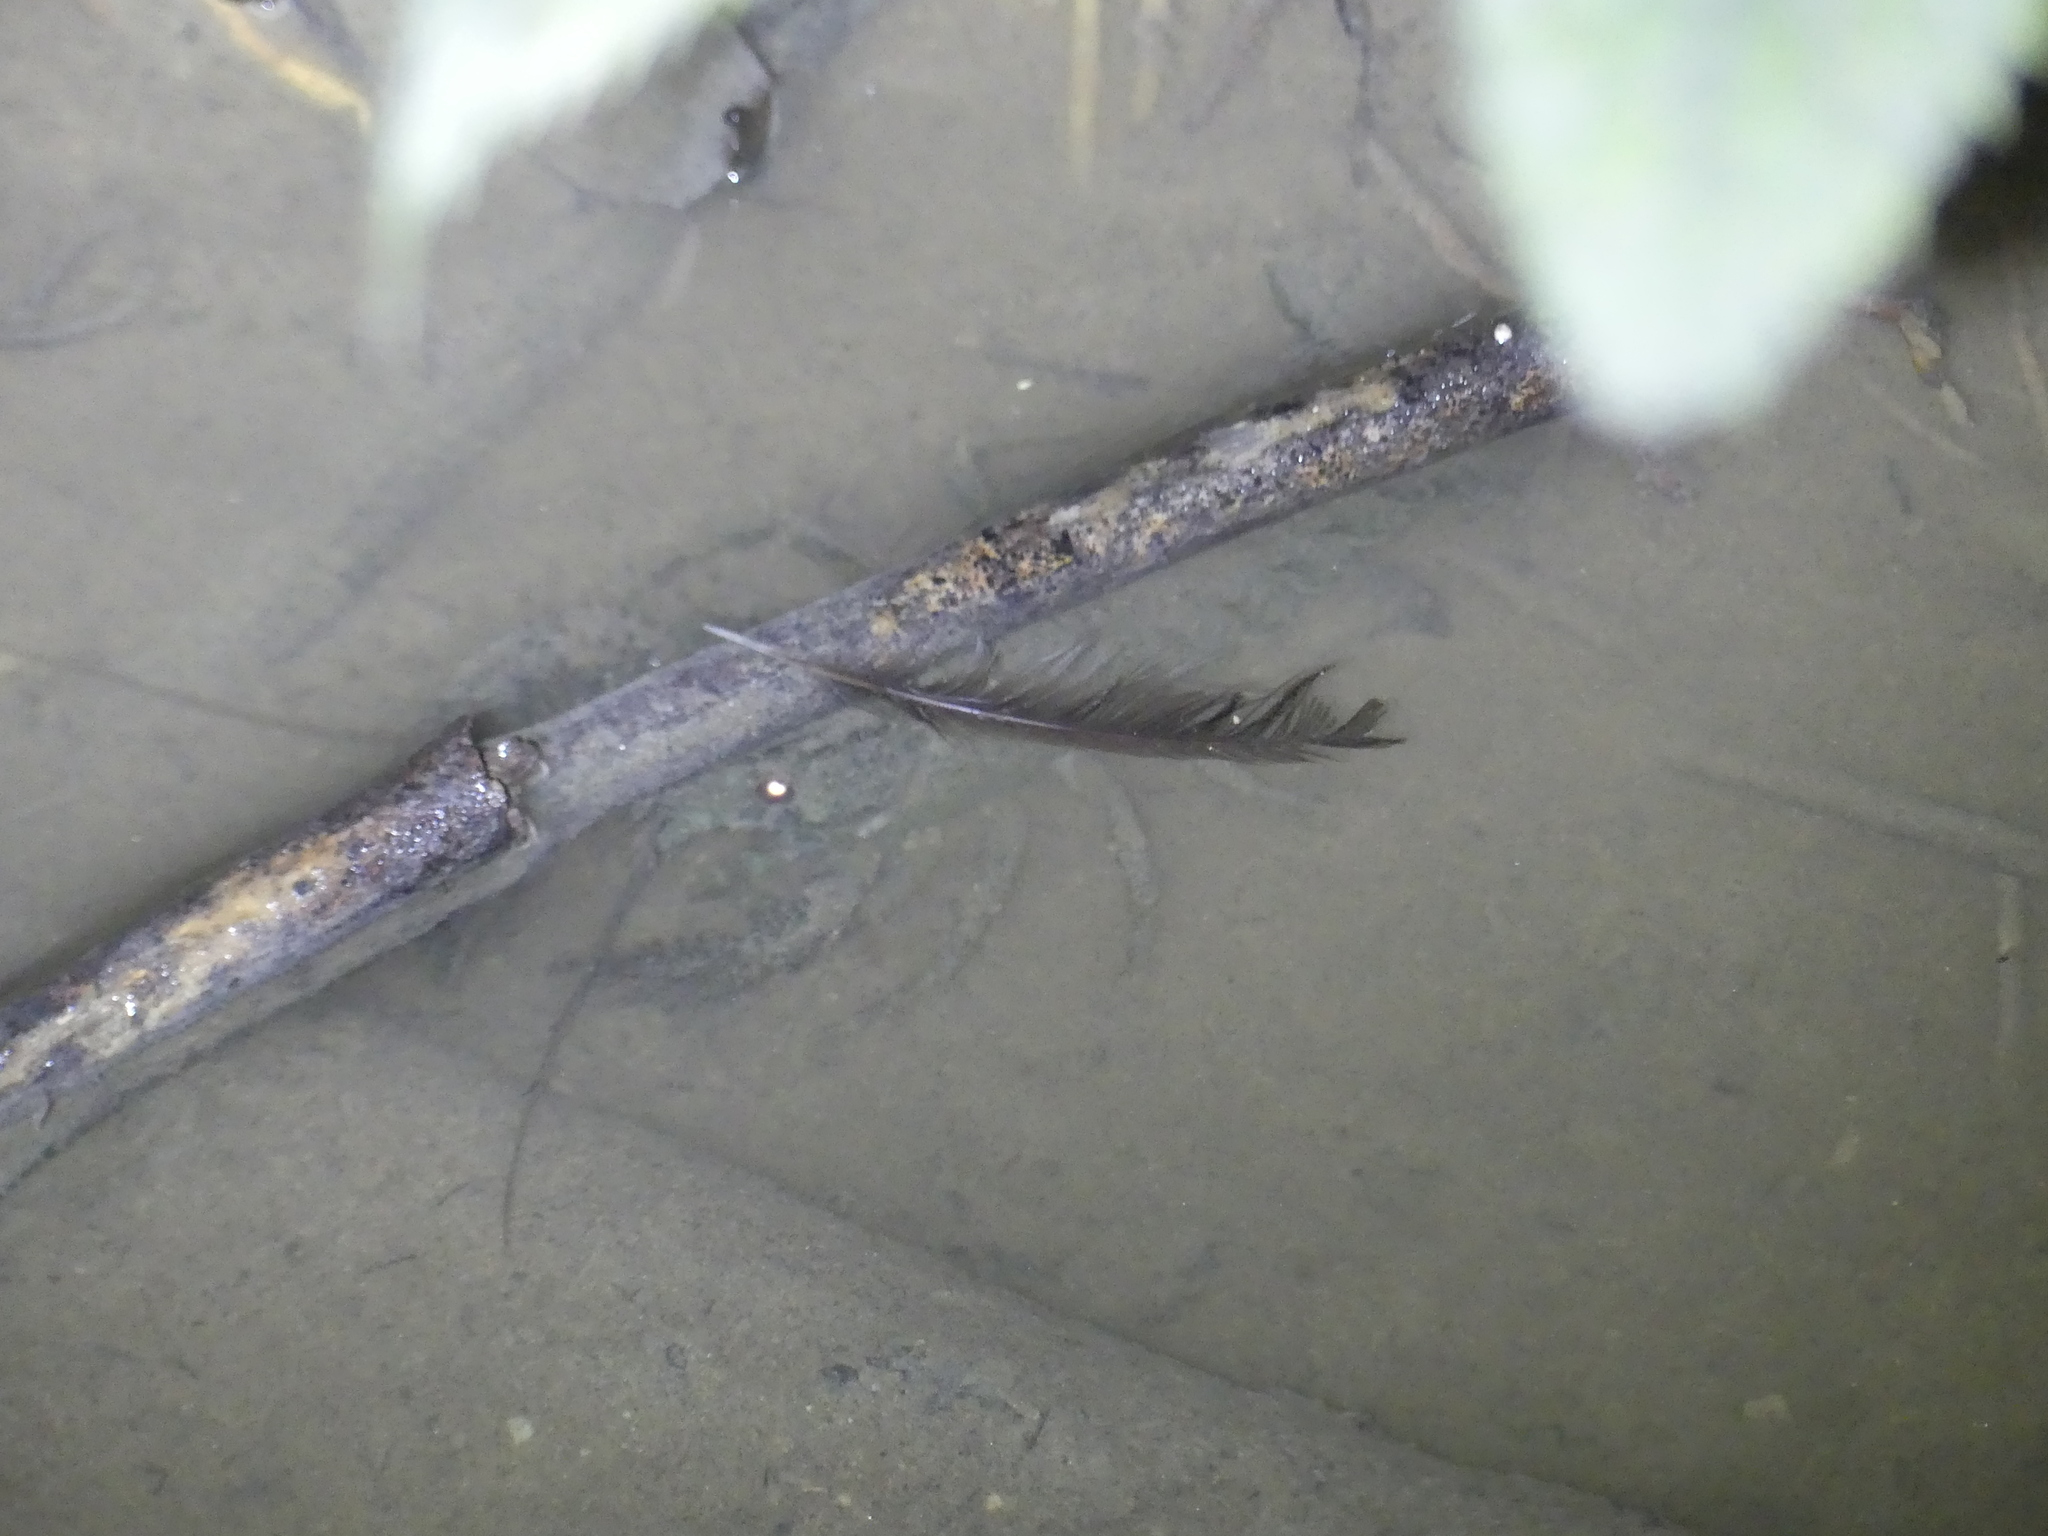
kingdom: Animalia
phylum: Arthropoda
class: Malacostraca
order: Decapoda
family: Parastacidae
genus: Paranephrops
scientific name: Paranephrops planifrons
